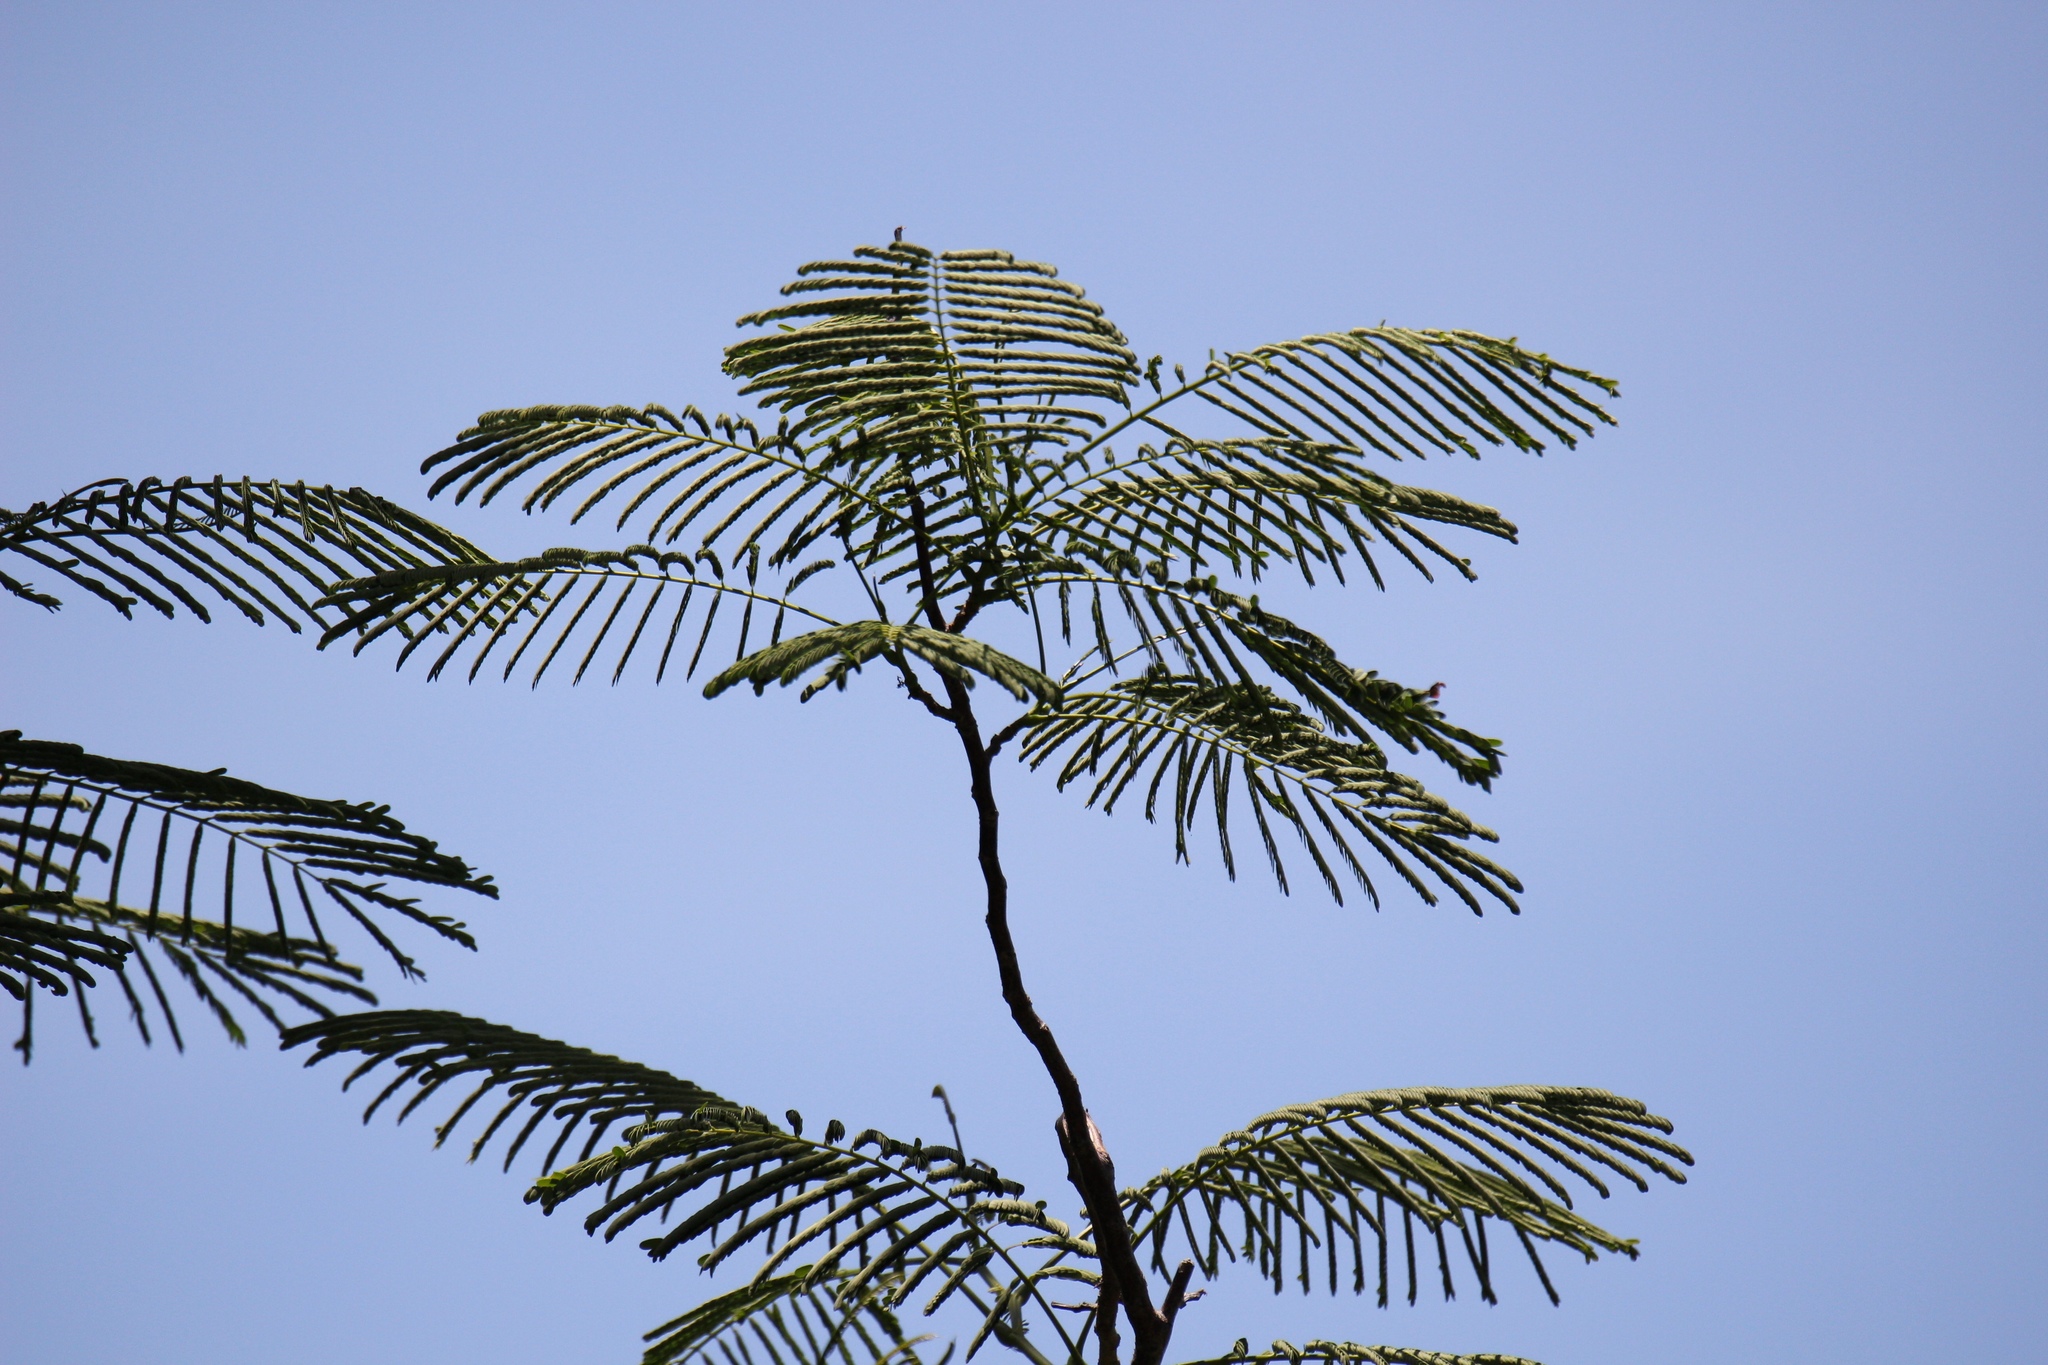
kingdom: Plantae
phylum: Tracheophyta
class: Magnoliopsida
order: Fabales
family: Fabaceae
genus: Delonix
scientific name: Delonix regia
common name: Royal poinciana
